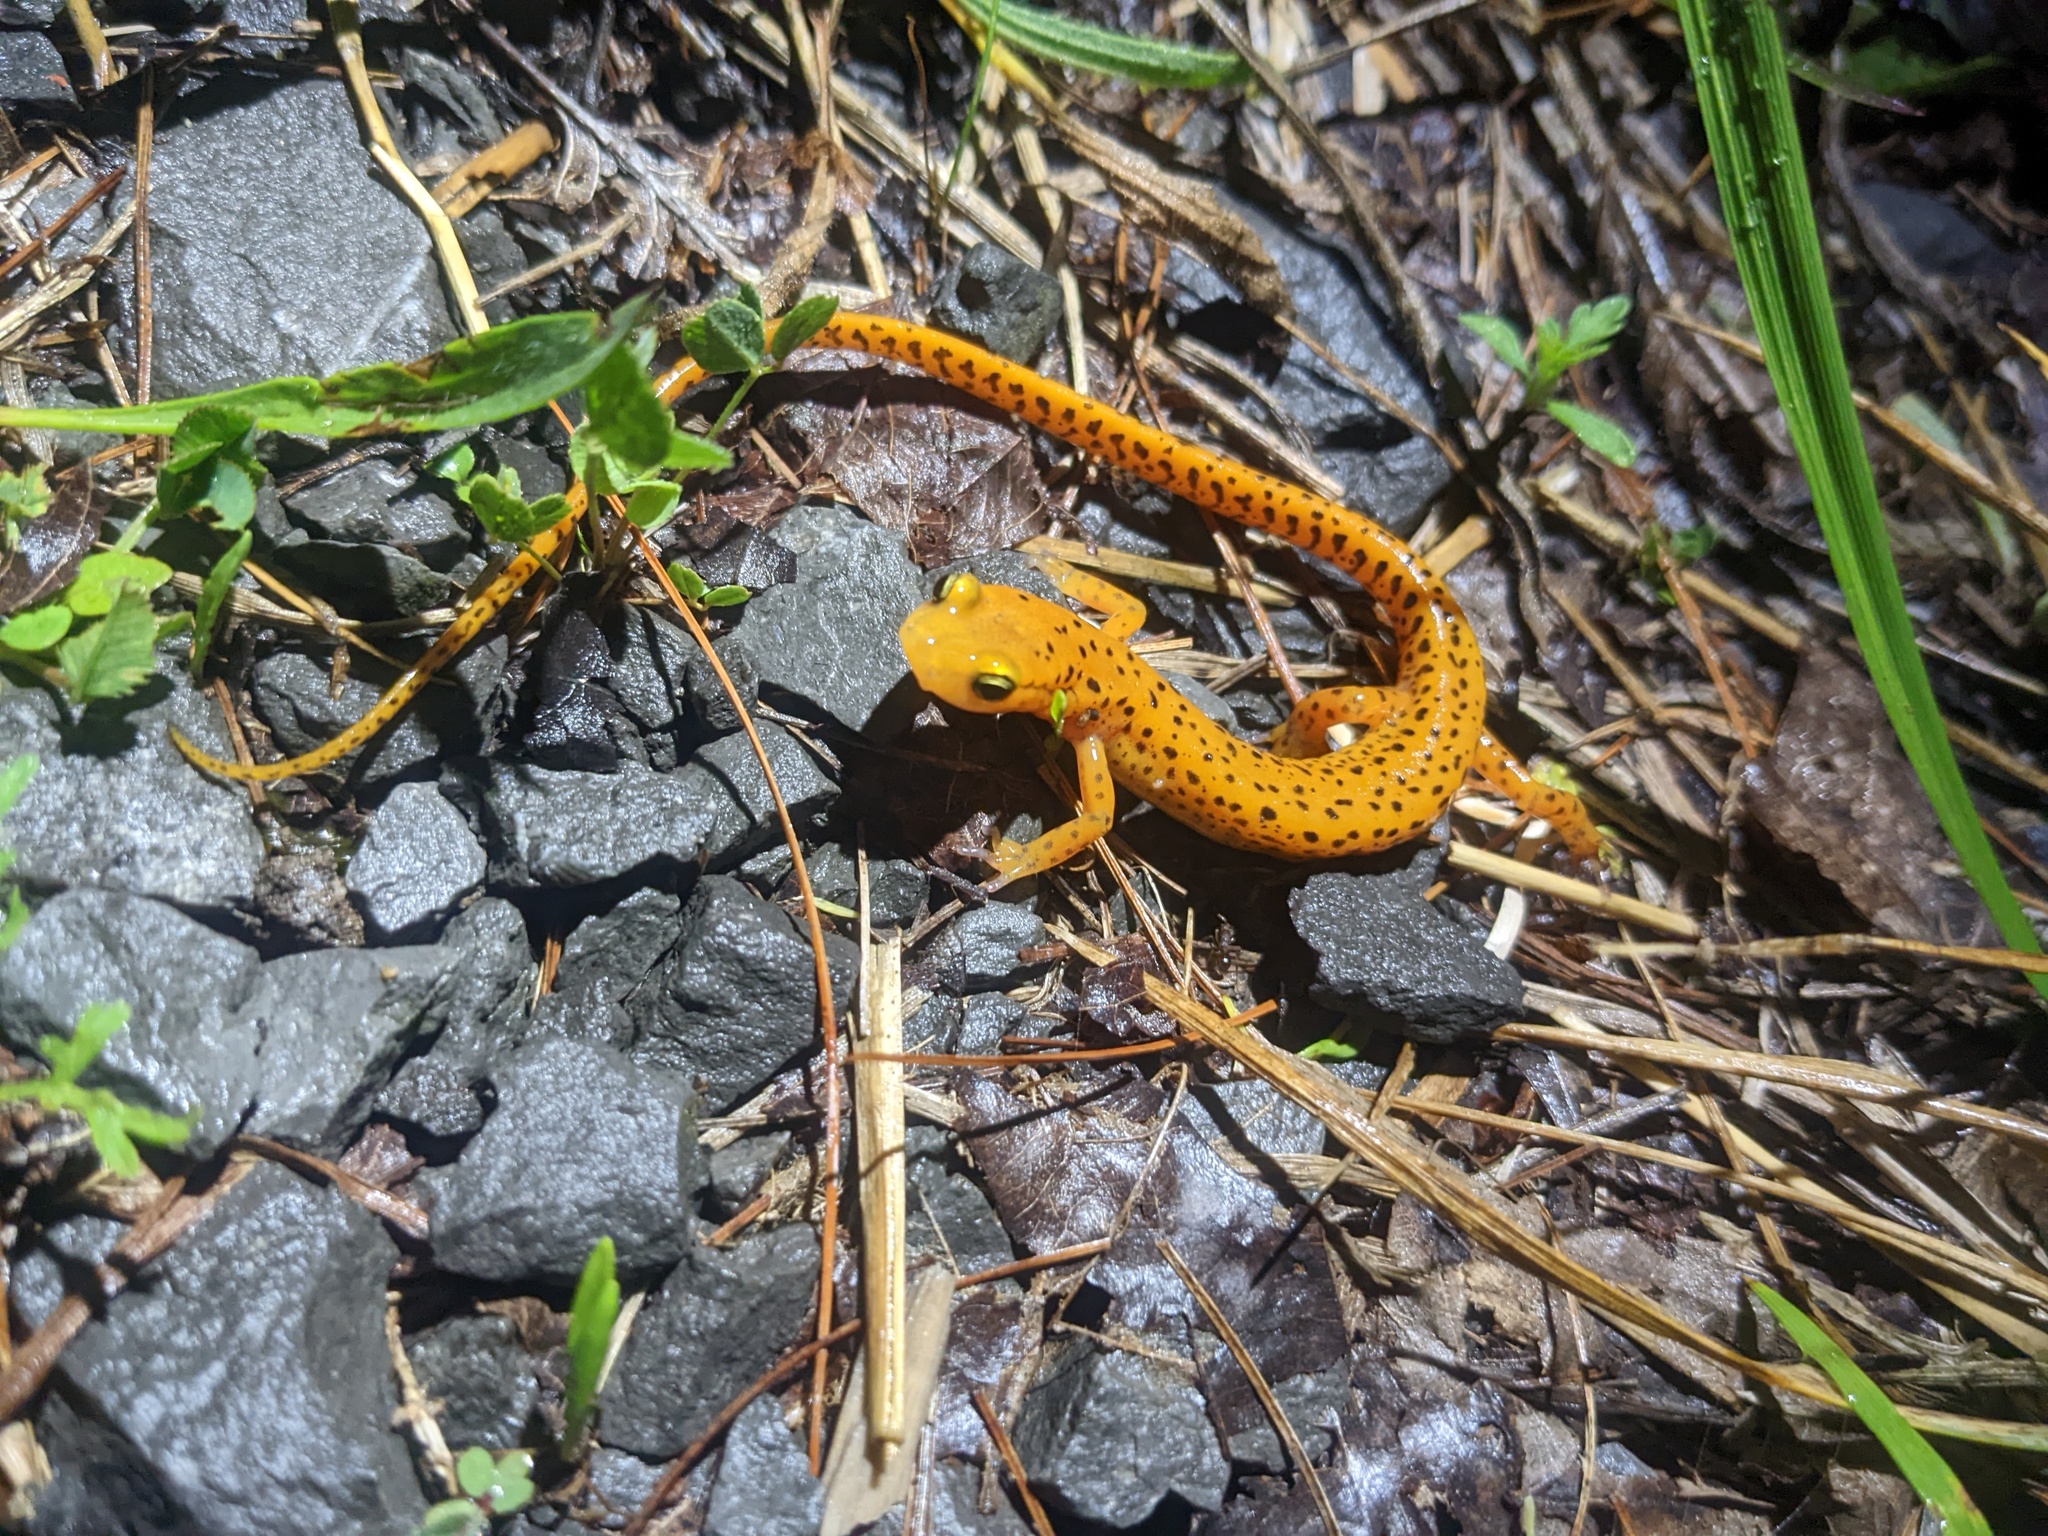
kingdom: Animalia
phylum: Chordata
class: Amphibia
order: Caudata
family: Plethodontidae
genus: Eurycea
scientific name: Eurycea longicauda
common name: Long-tailed salamander
